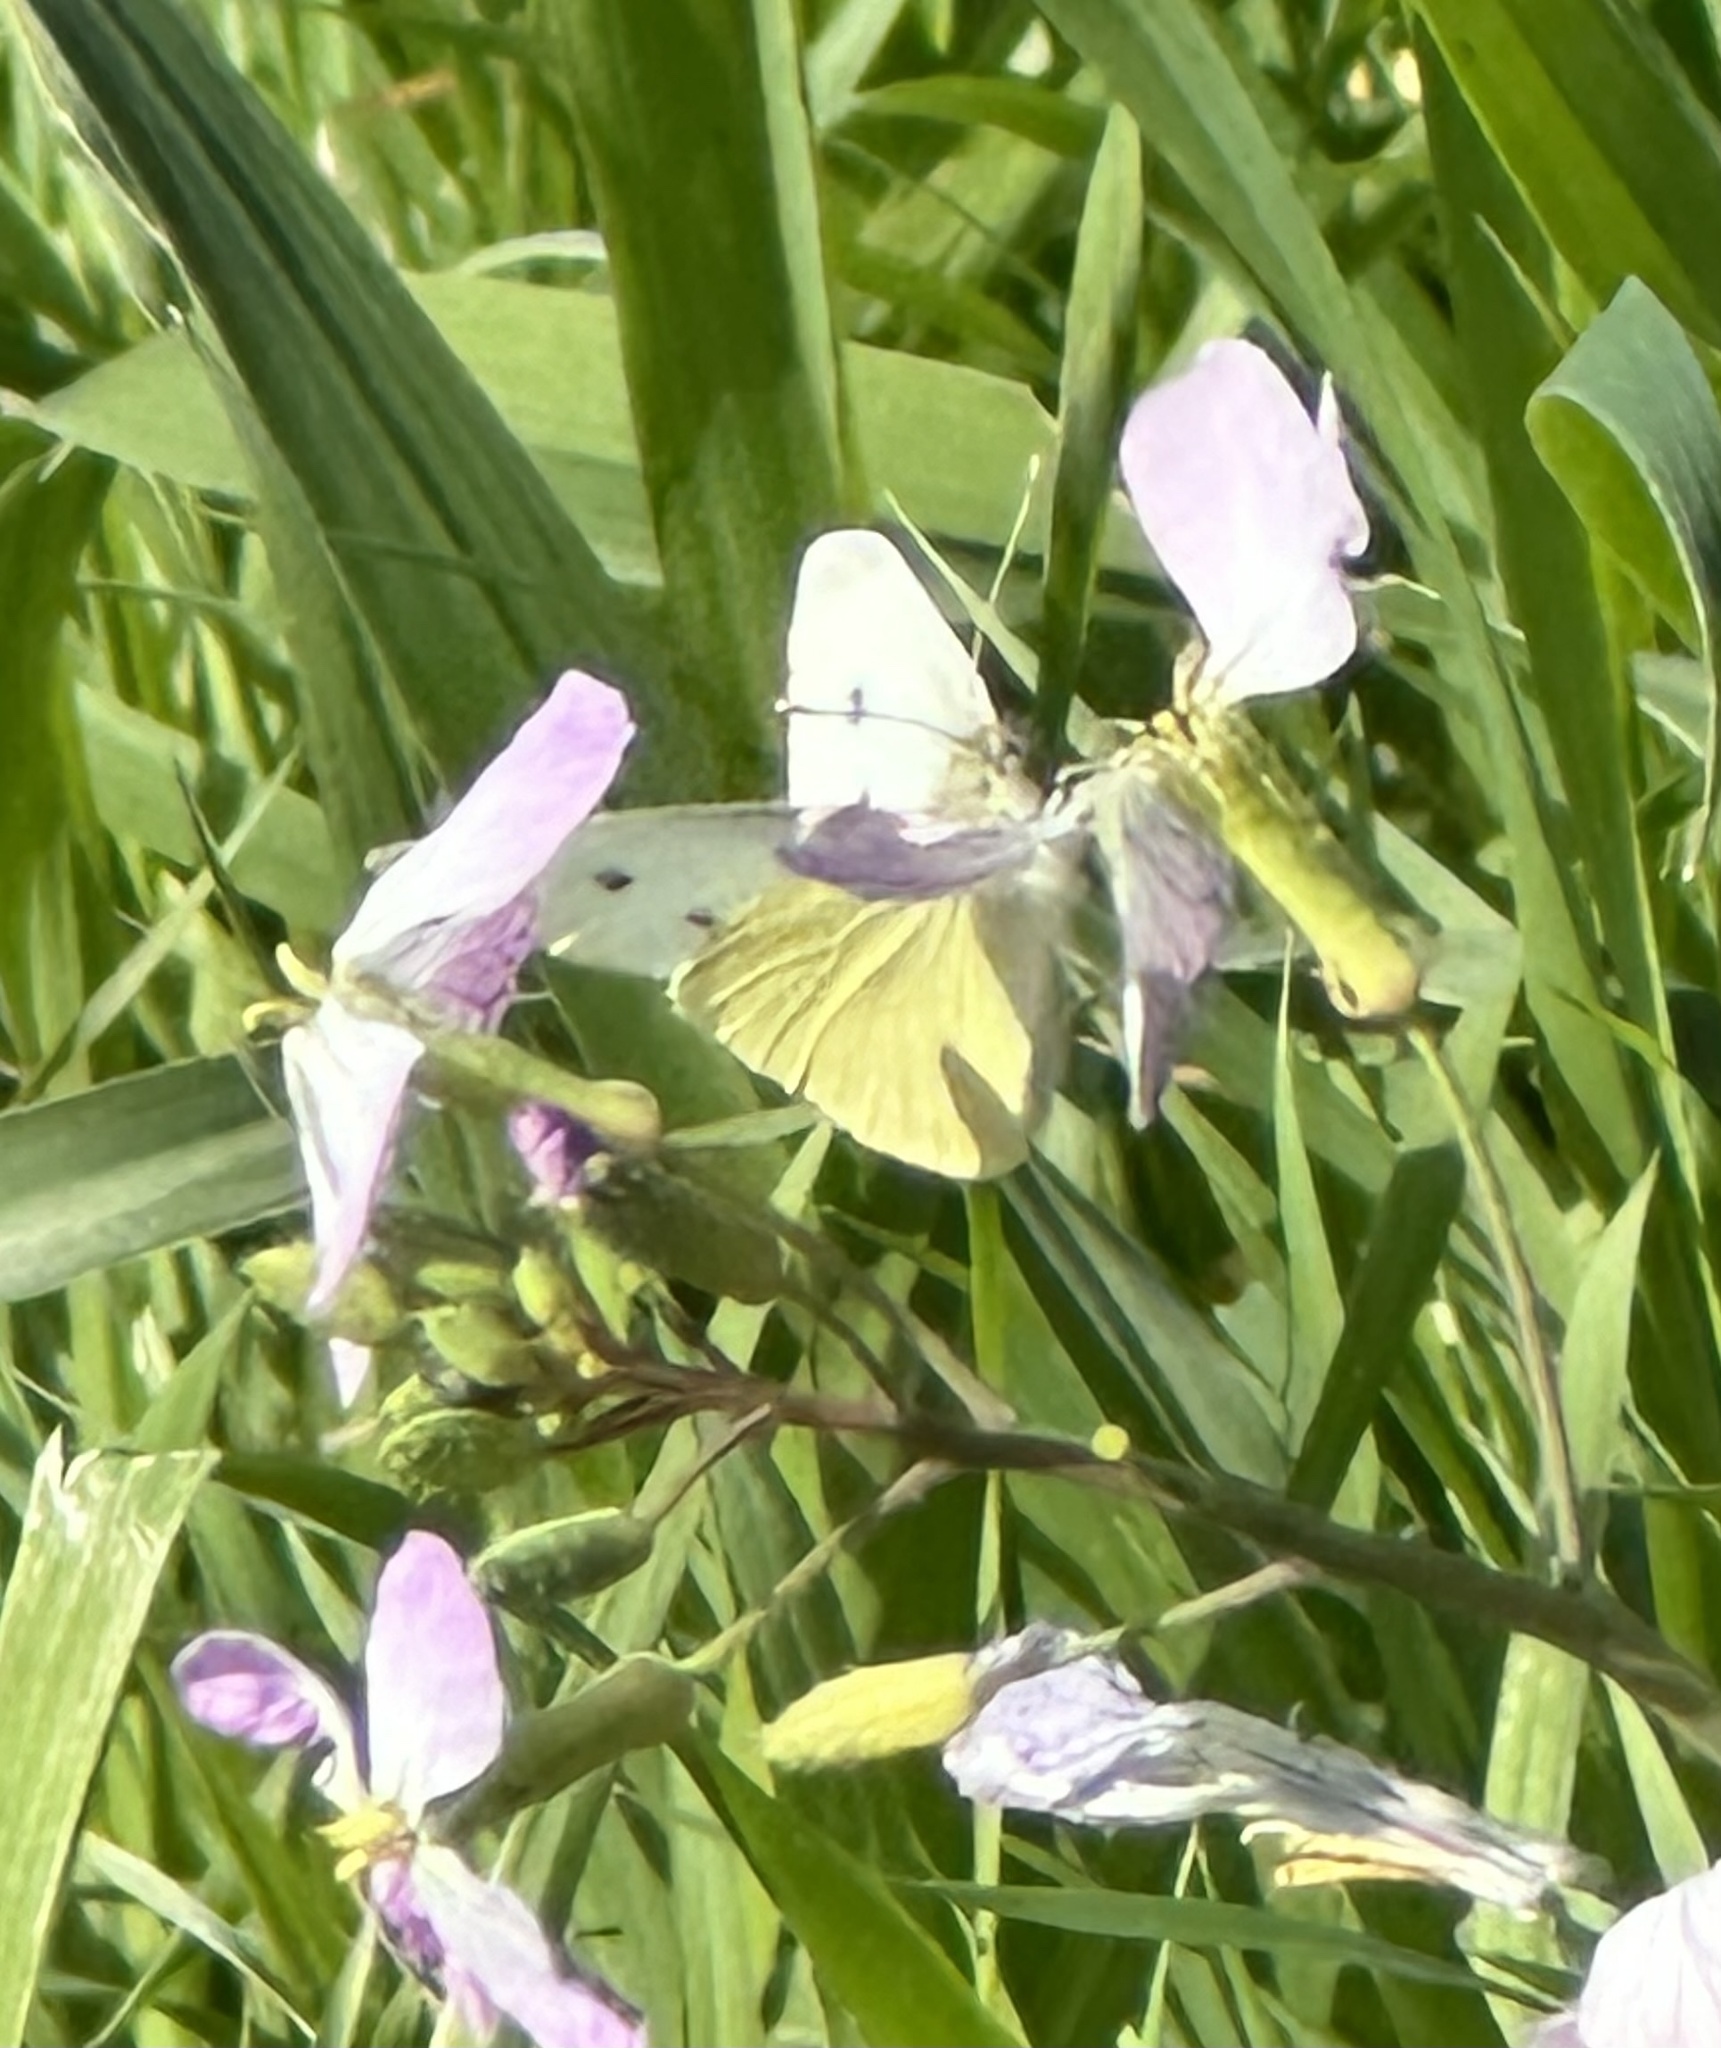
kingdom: Animalia
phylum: Arthropoda
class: Insecta
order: Lepidoptera
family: Pieridae
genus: Pieris
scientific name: Pieris rapae
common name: Small white
